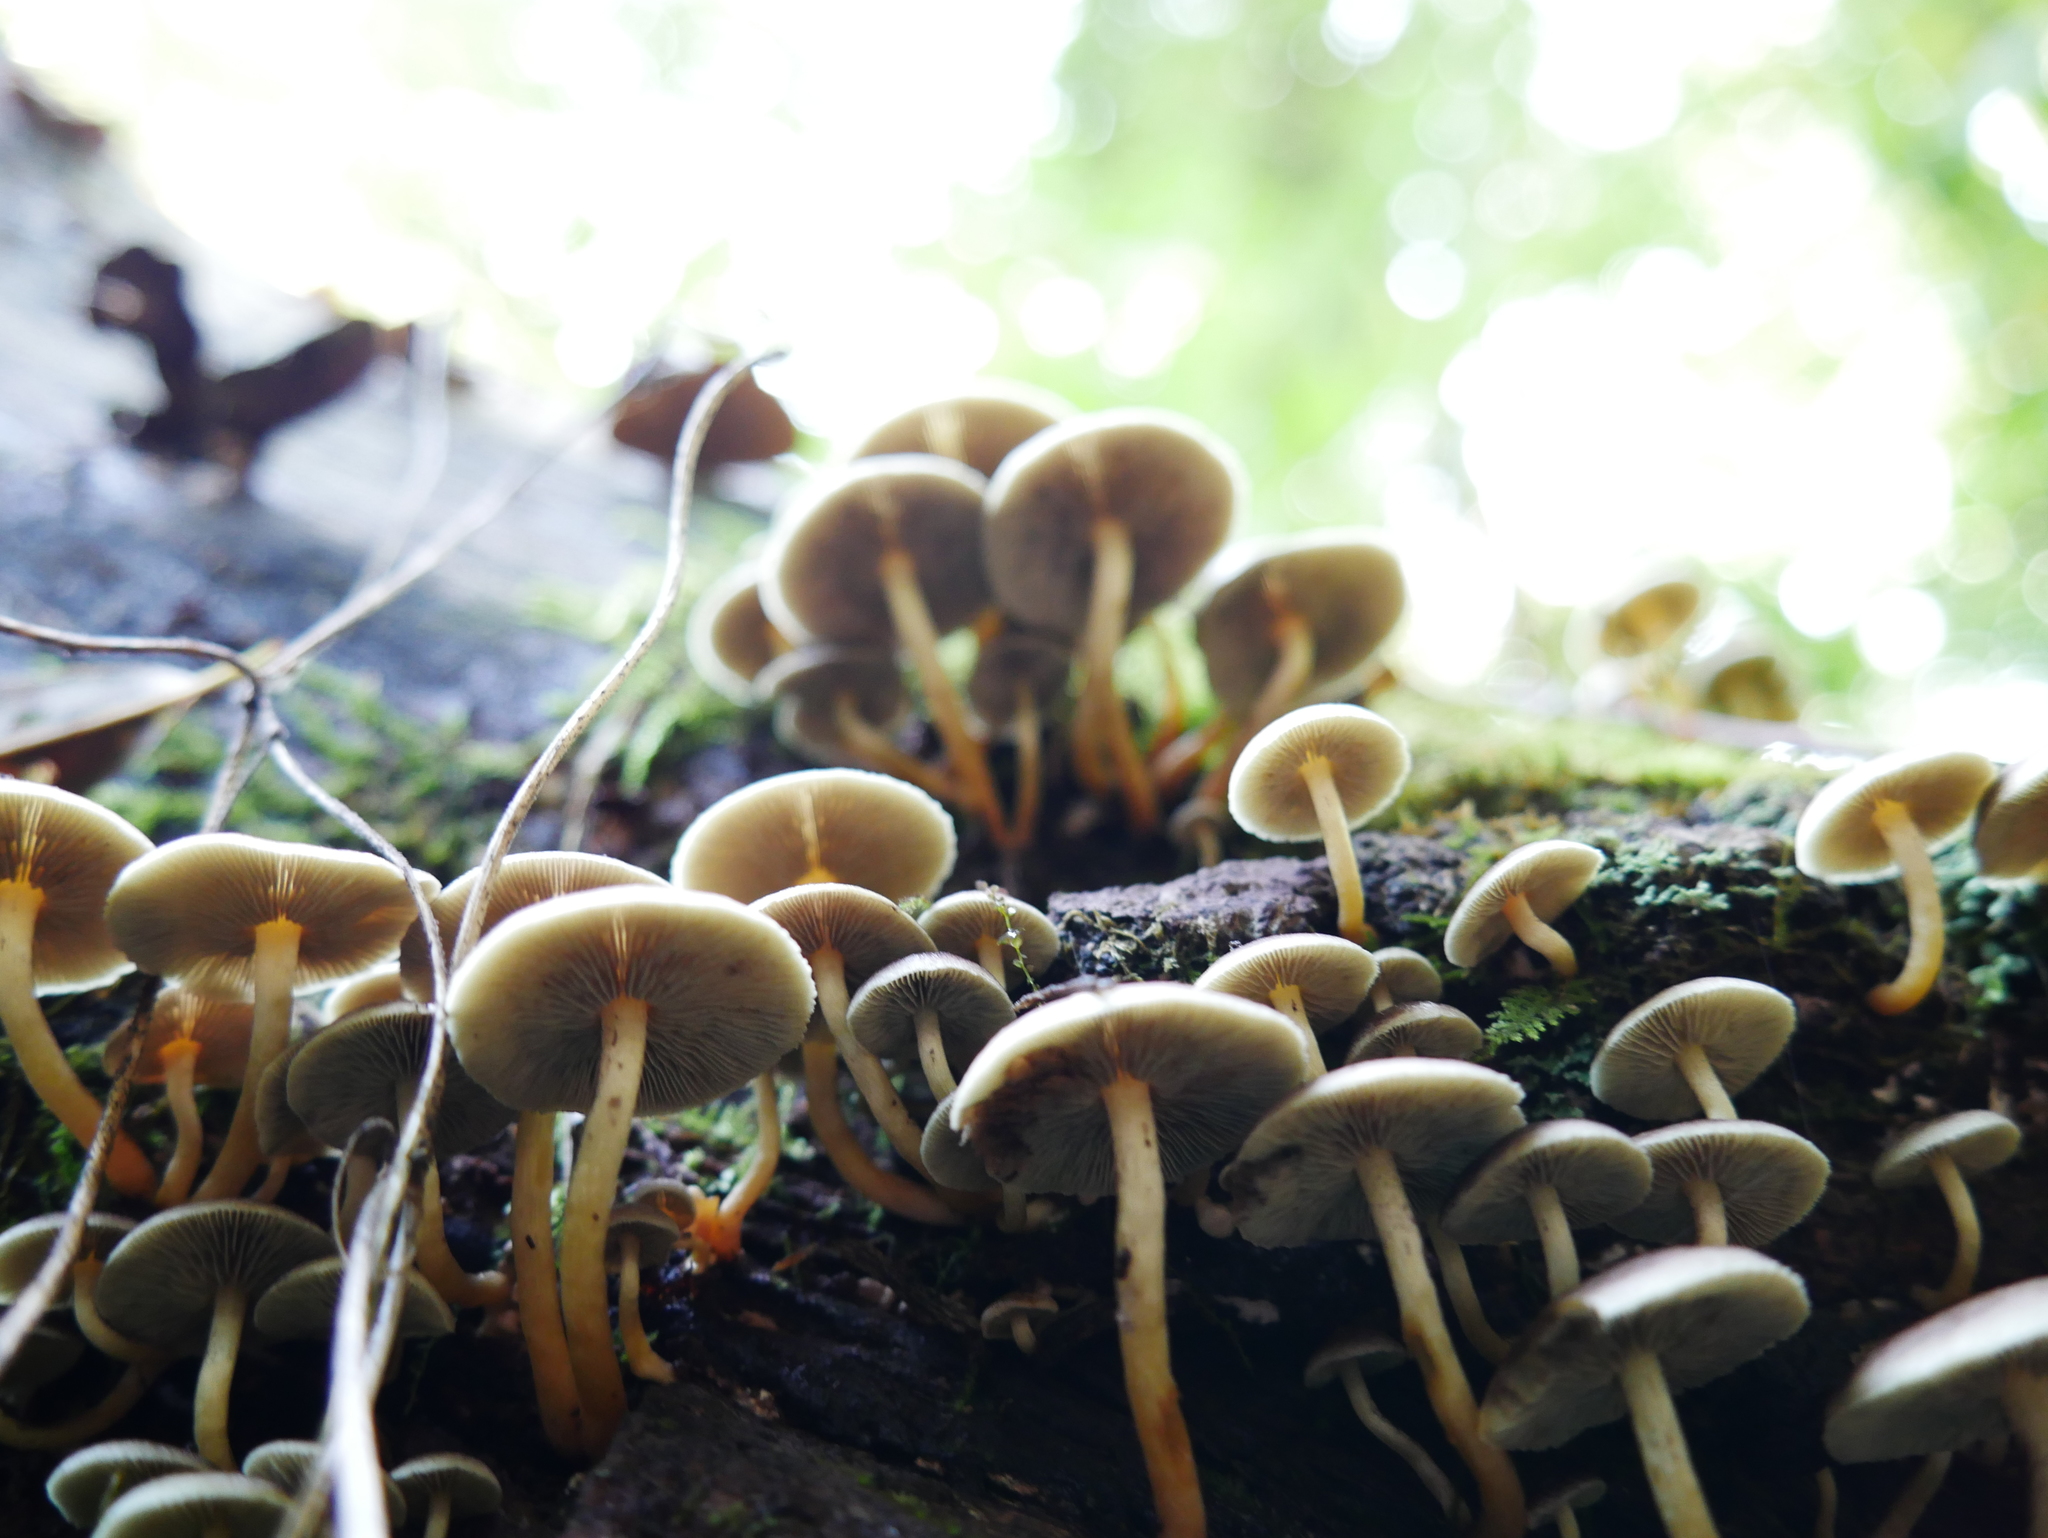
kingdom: Fungi
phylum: Basidiomycota
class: Agaricomycetes
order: Agaricales
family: Strophariaceae
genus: Hypholoma
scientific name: Hypholoma fasciculare
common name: Sulphur tuft
